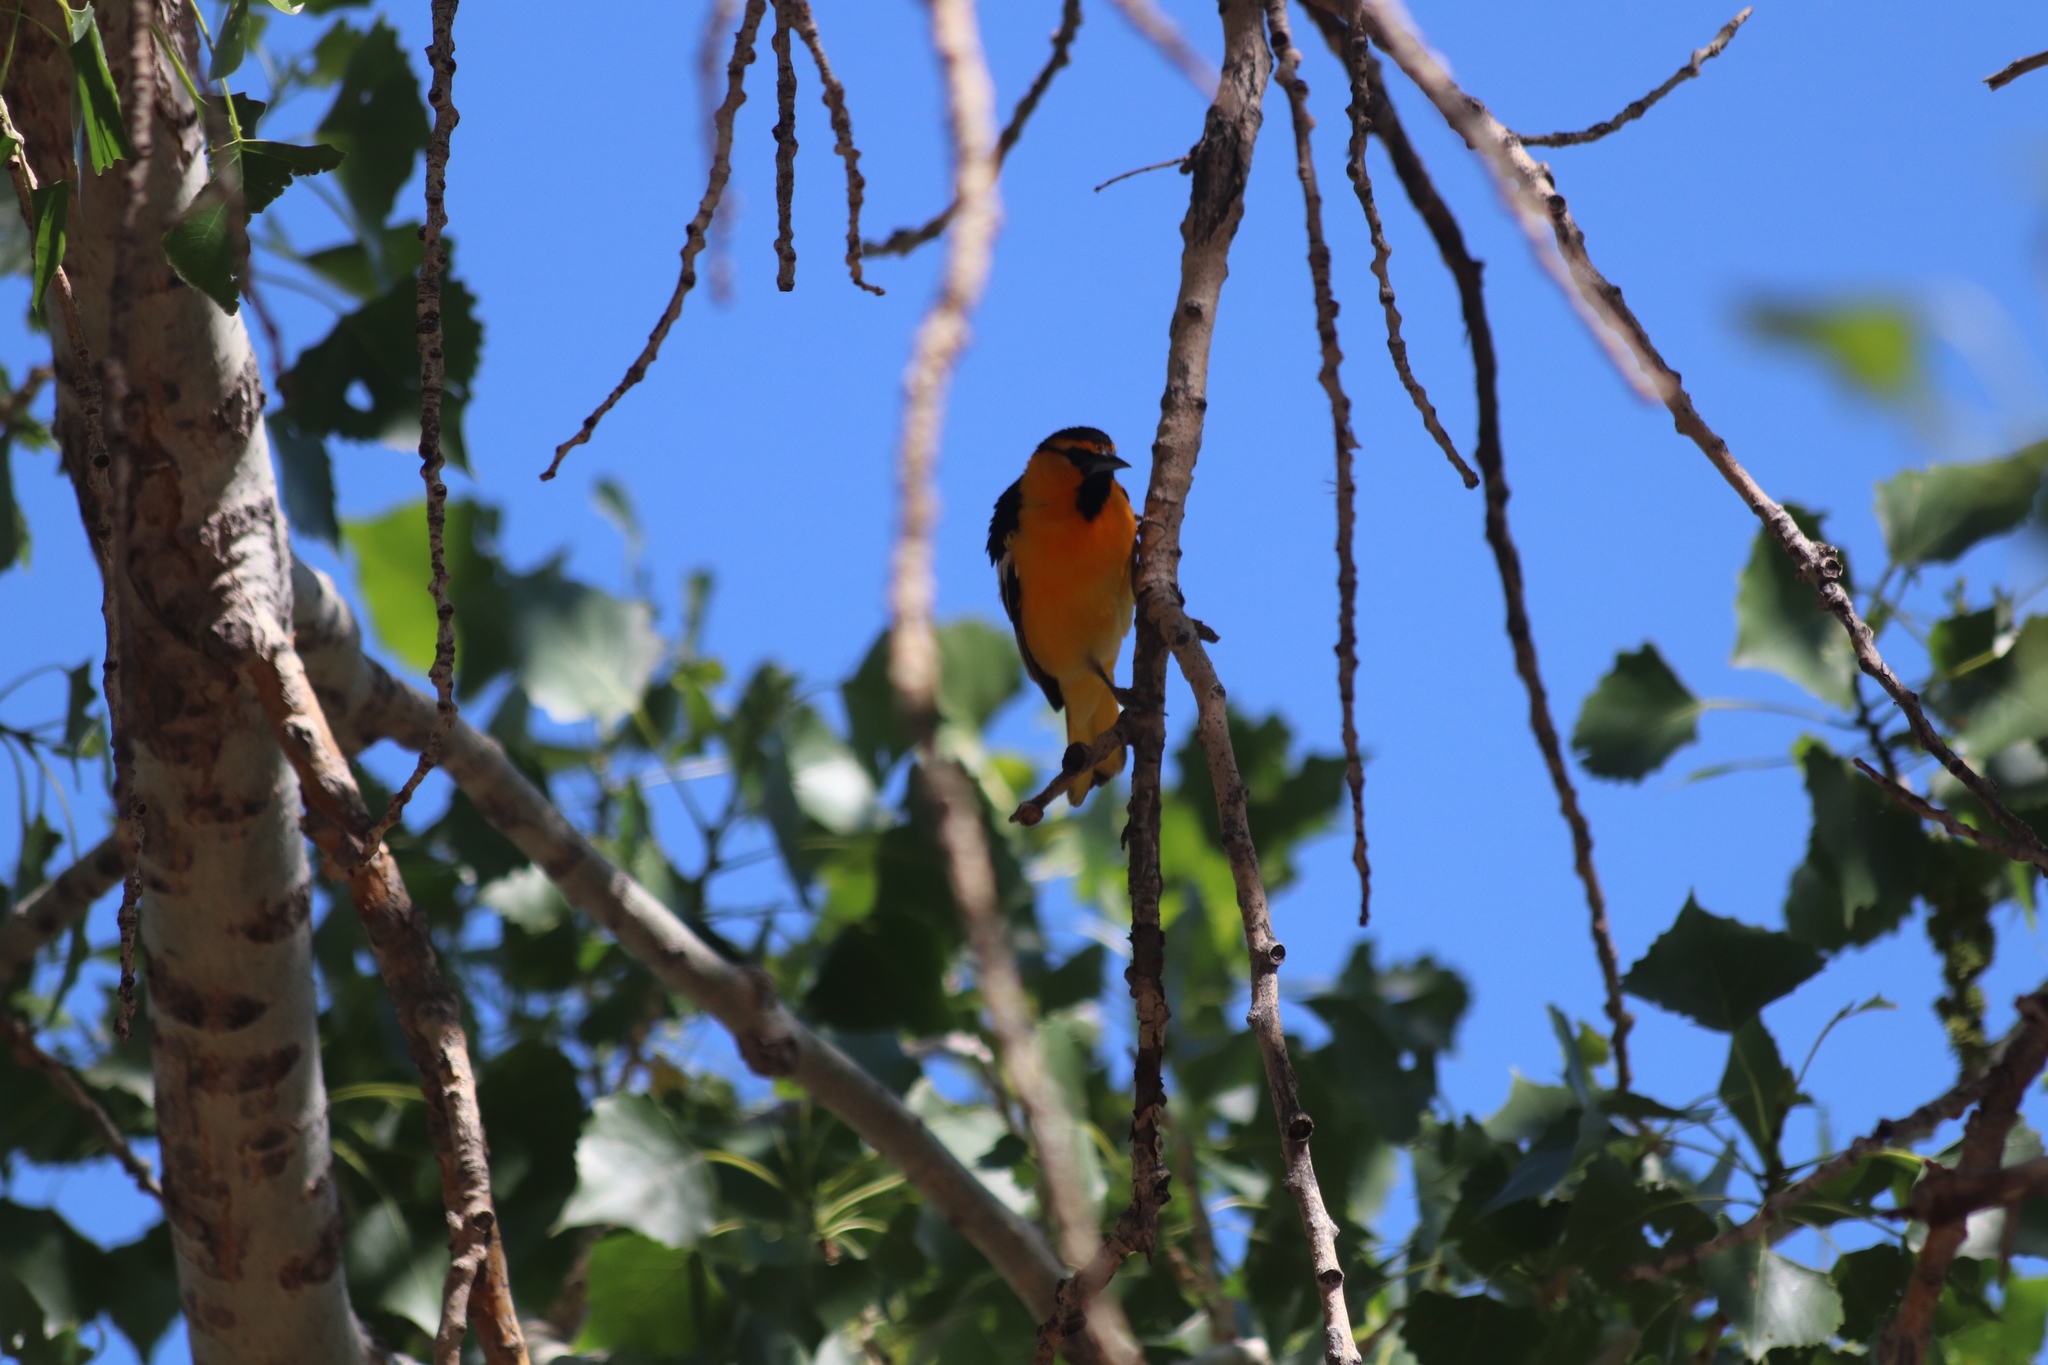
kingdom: Animalia
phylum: Chordata
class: Aves
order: Passeriformes
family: Icteridae
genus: Icterus
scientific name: Icterus bullockii
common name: Bullock's oriole
